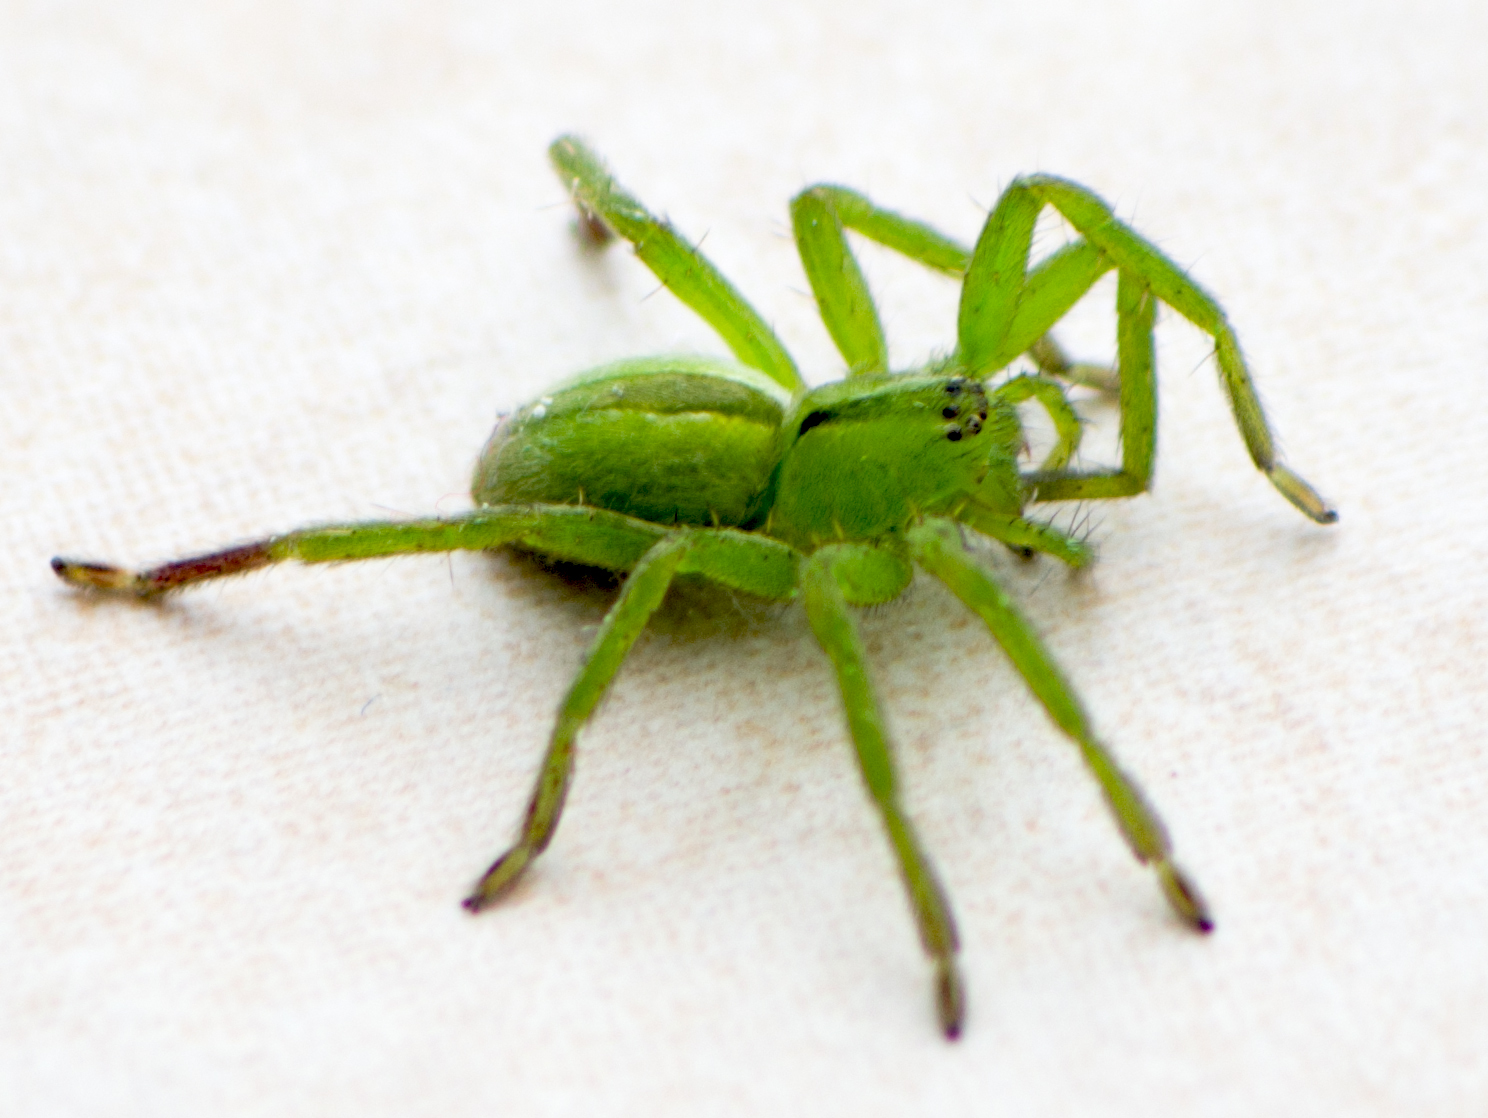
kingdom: Animalia
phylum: Arthropoda
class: Arachnida
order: Araneae
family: Sparassidae
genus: Micrommata
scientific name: Micrommata ligurina
